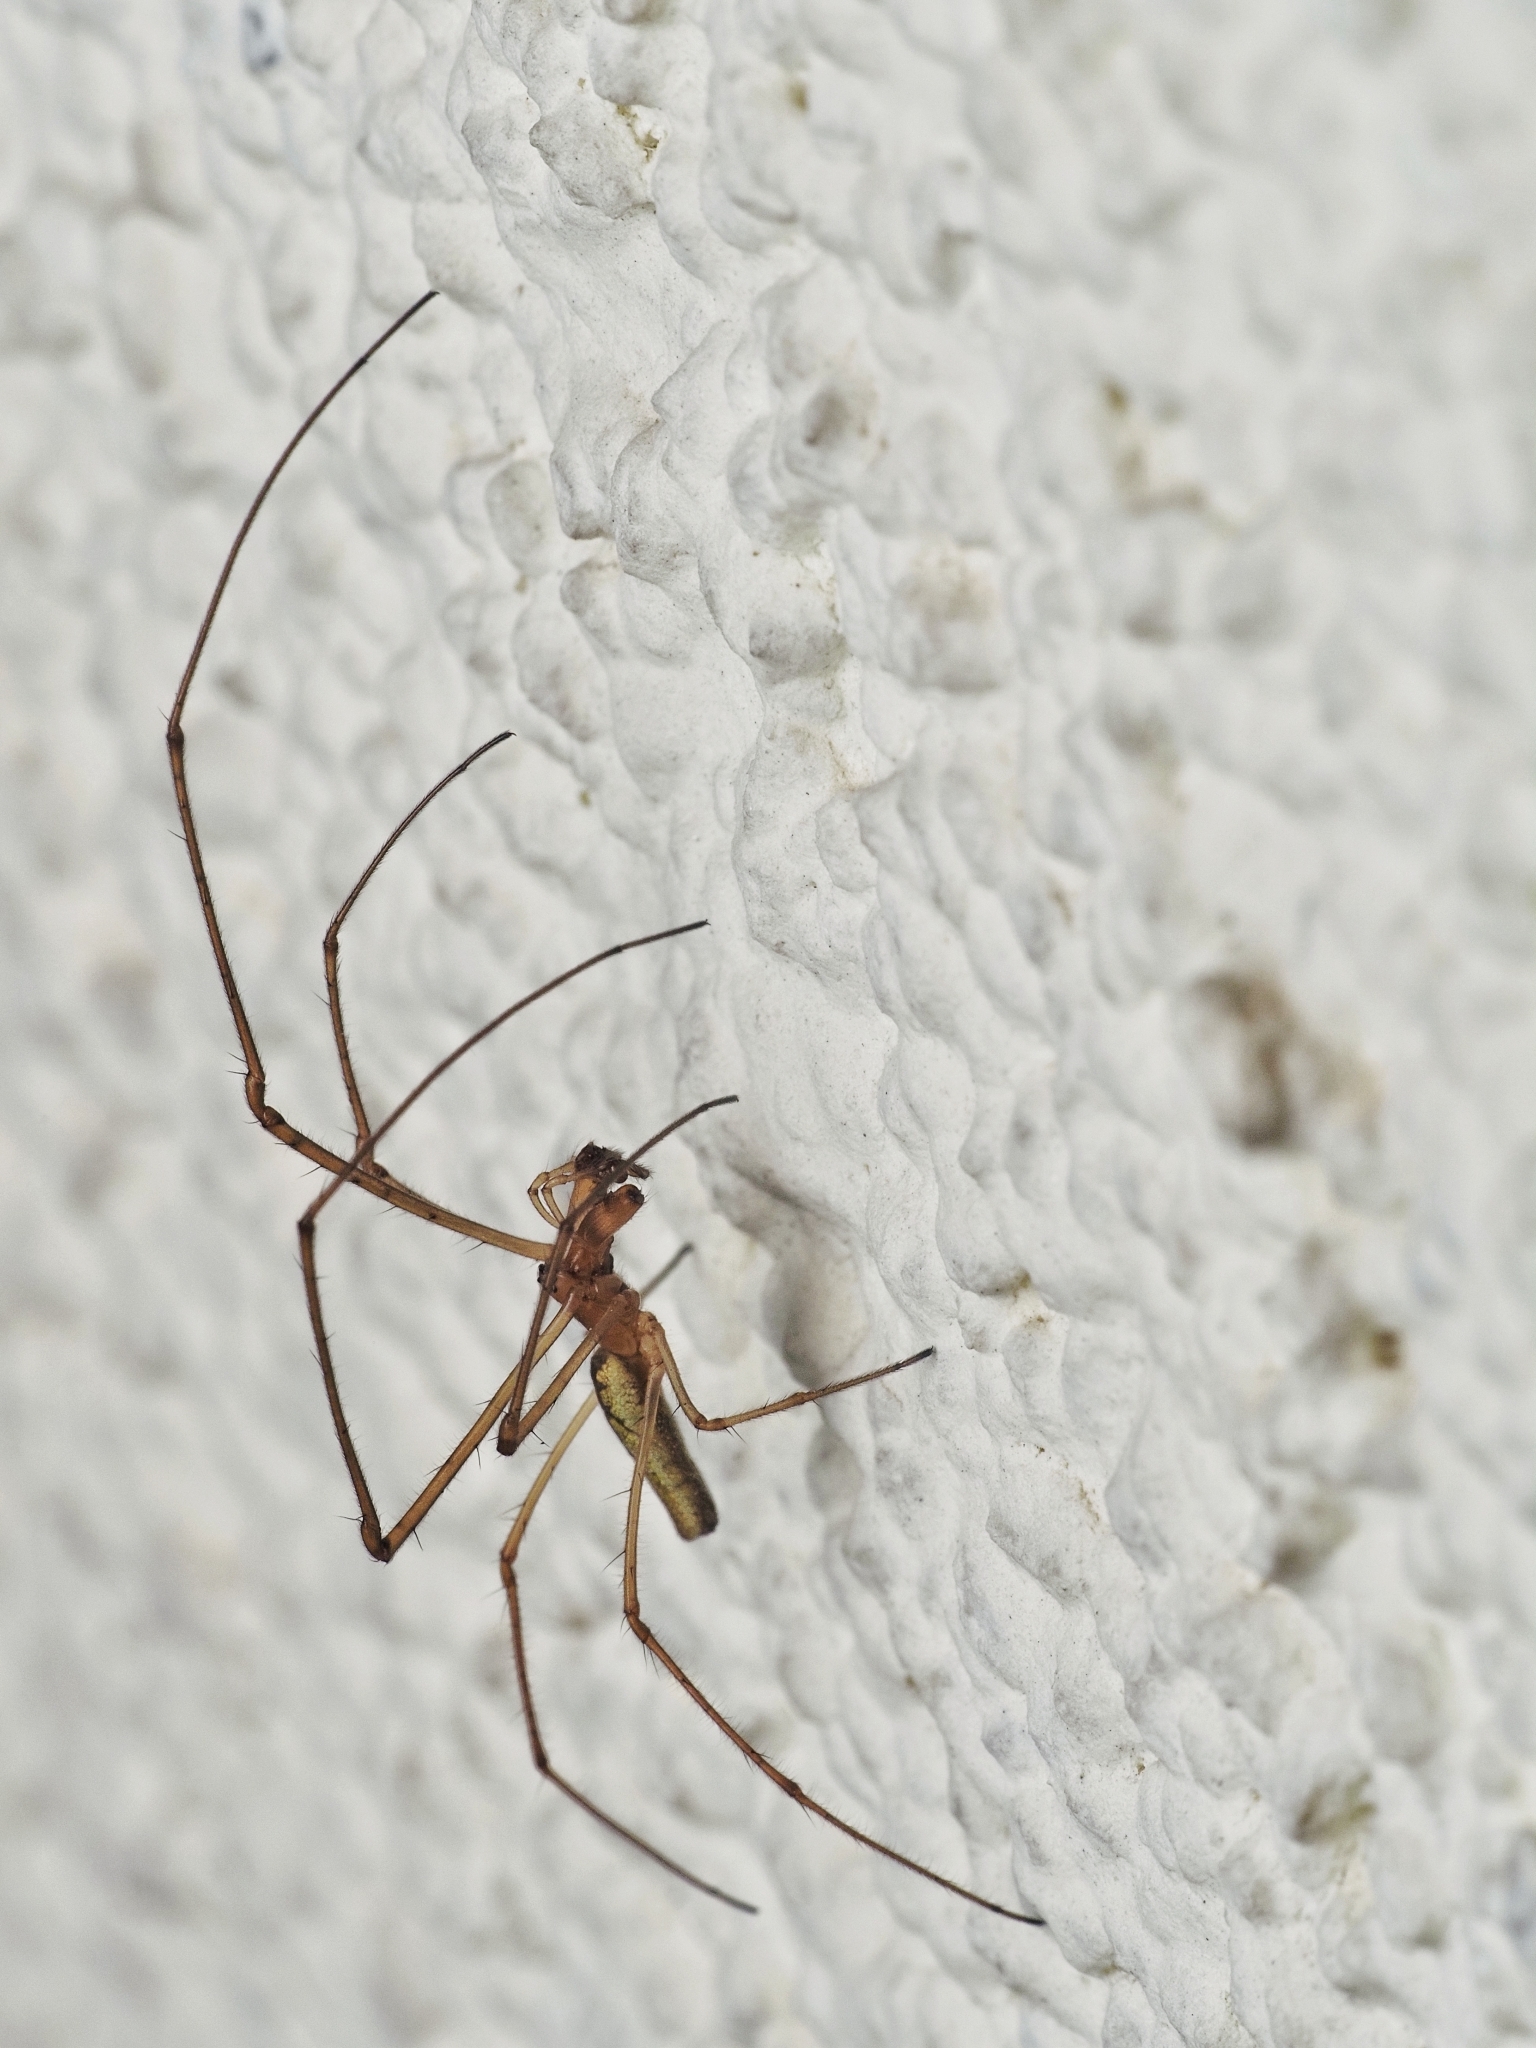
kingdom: Animalia
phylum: Arthropoda
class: Arachnida
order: Araneae
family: Tetragnathidae
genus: Tetragnatha
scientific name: Tetragnatha montana
